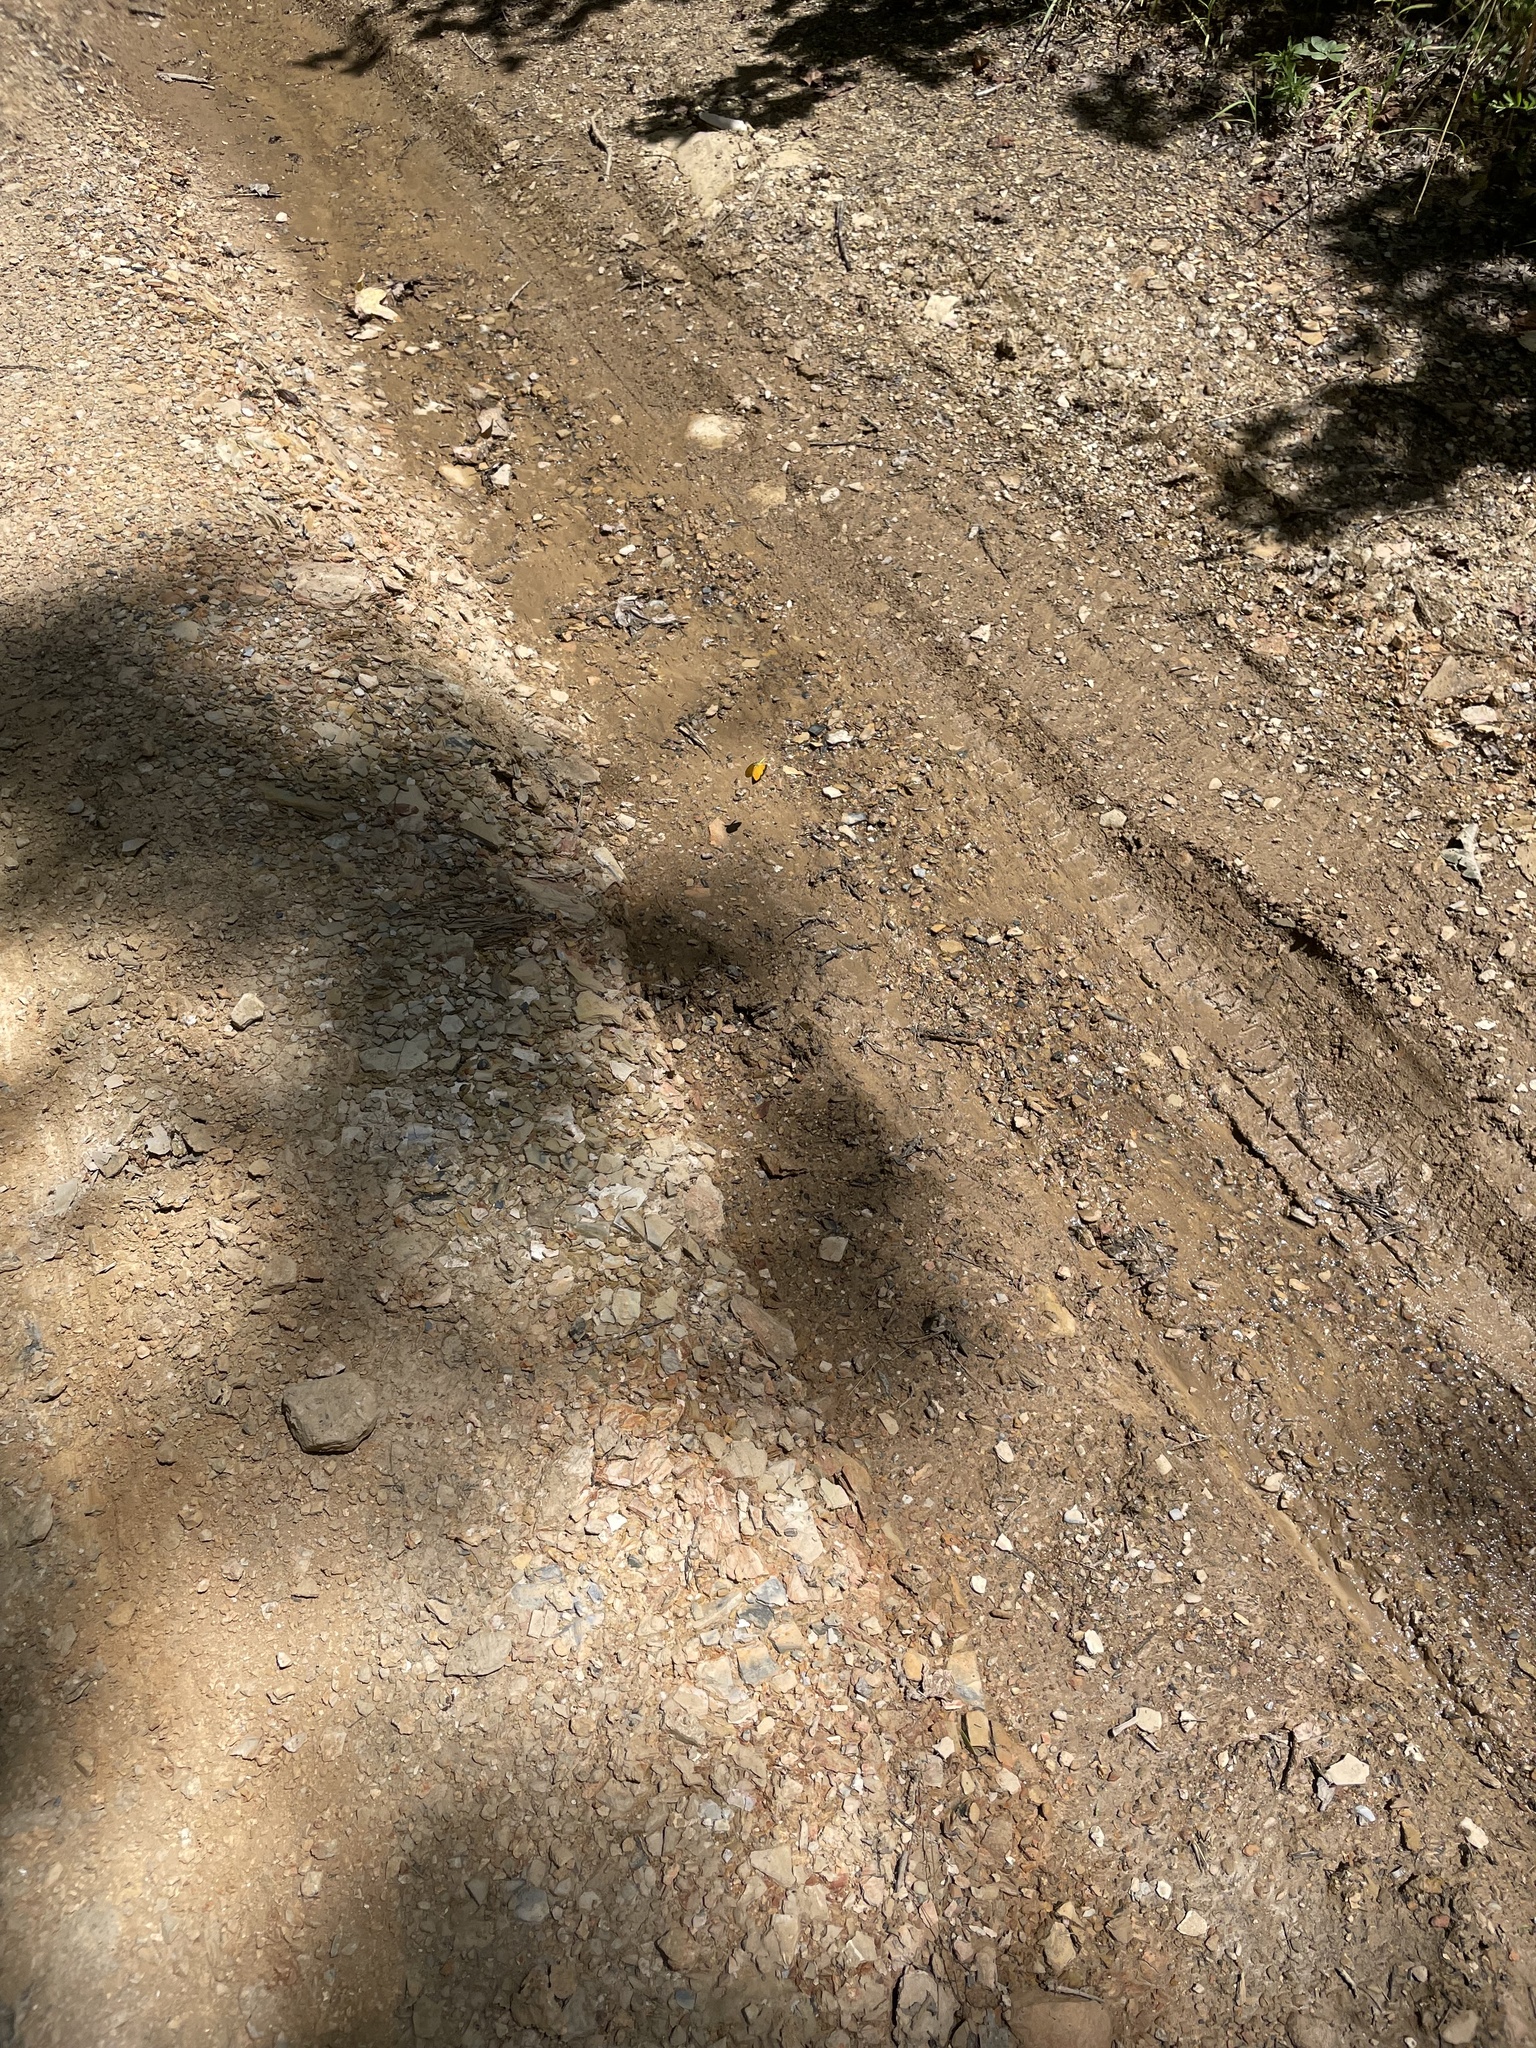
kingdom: Animalia
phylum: Arthropoda
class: Insecta
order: Lepidoptera
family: Pieridae
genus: Abaeis
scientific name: Abaeis nicippe
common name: Sleepy orange
